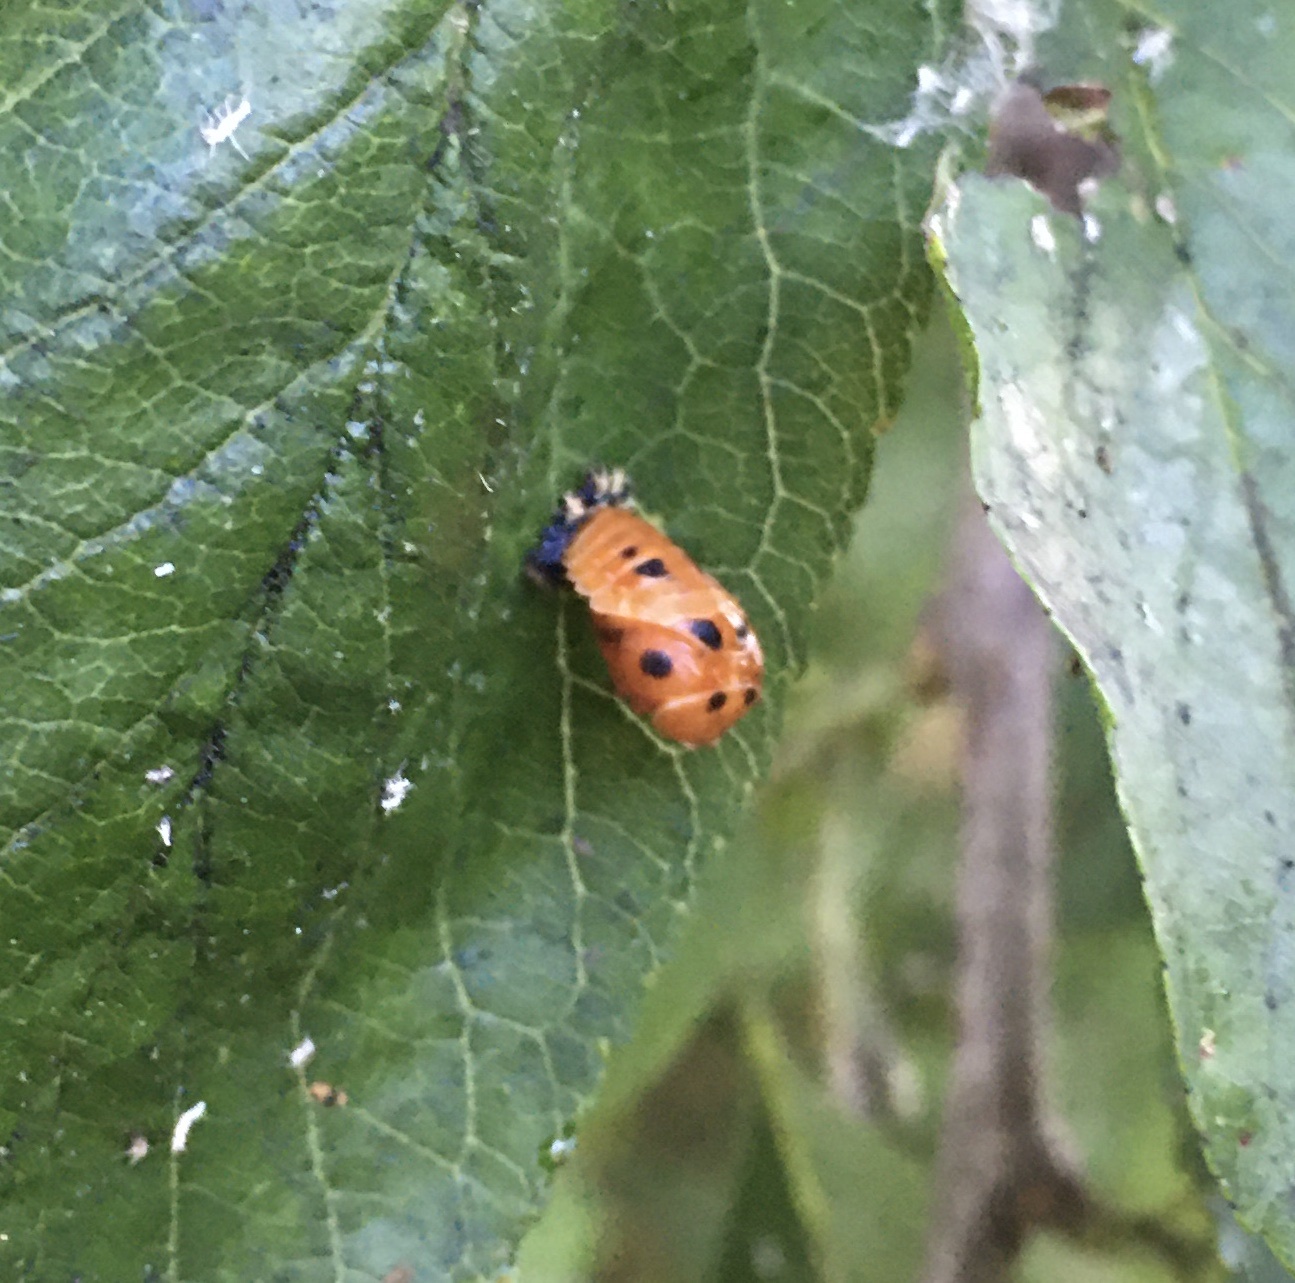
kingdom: Animalia
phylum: Arthropoda
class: Insecta
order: Coleoptera
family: Coccinellidae
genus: Harmonia
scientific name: Harmonia axyridis
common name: Harlequin ladybird
